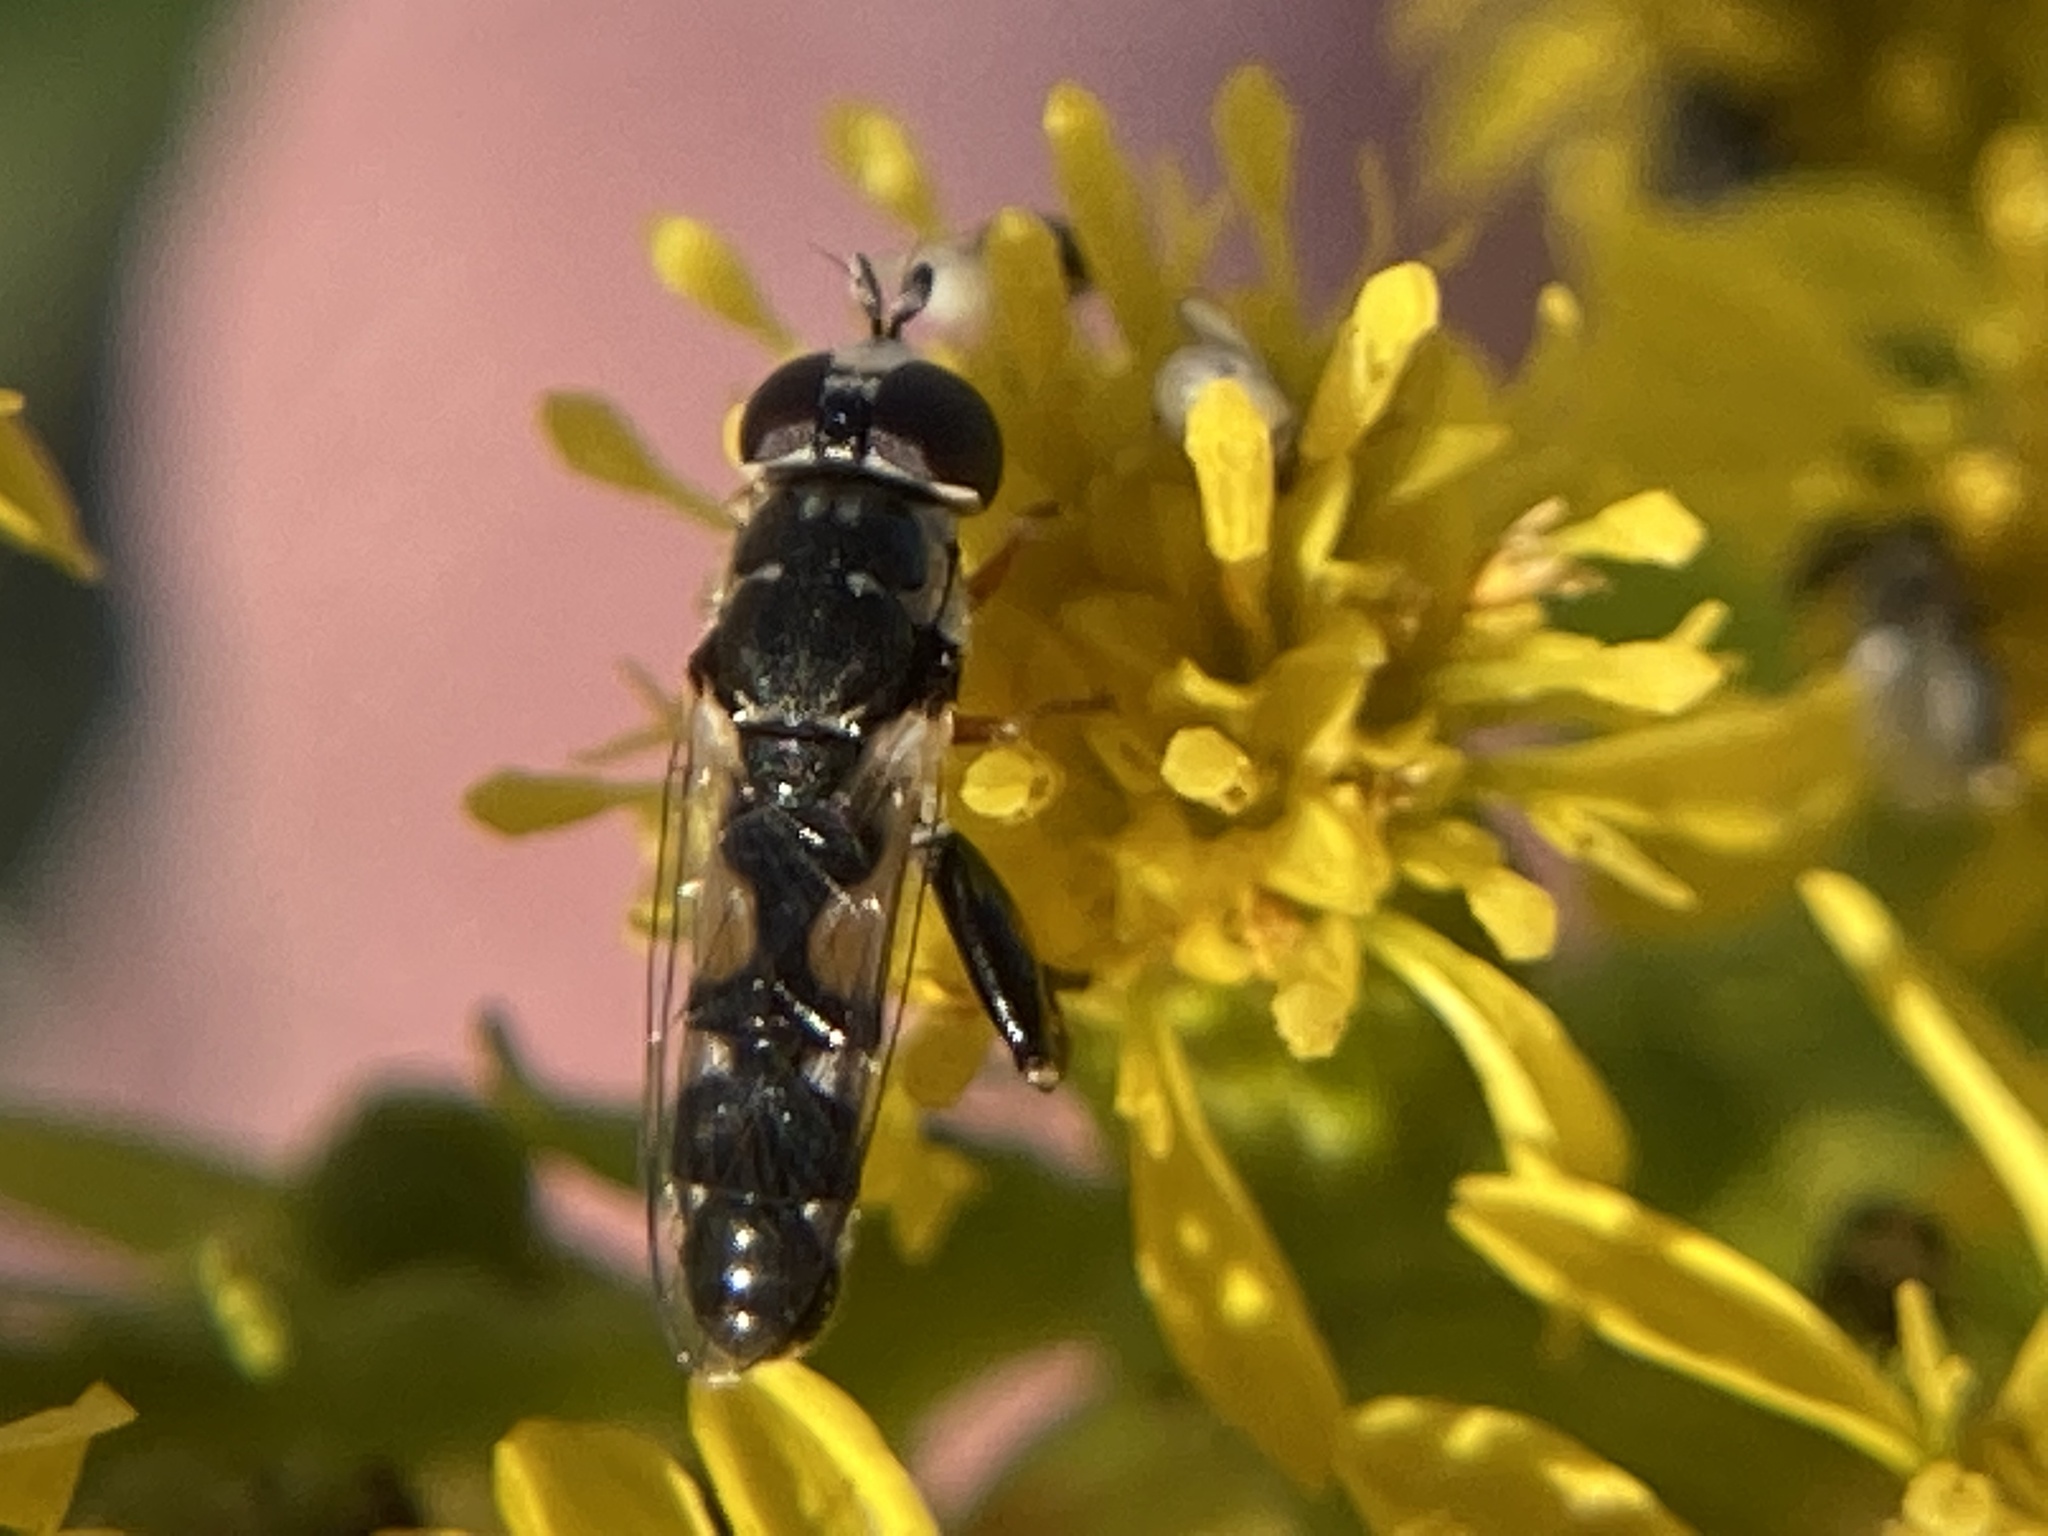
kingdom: Animalia
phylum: Arthropoda
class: Insecta
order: Diptera
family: Syrphidae
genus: Syritta
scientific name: Syritta flaviventris
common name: Syrphid fly
